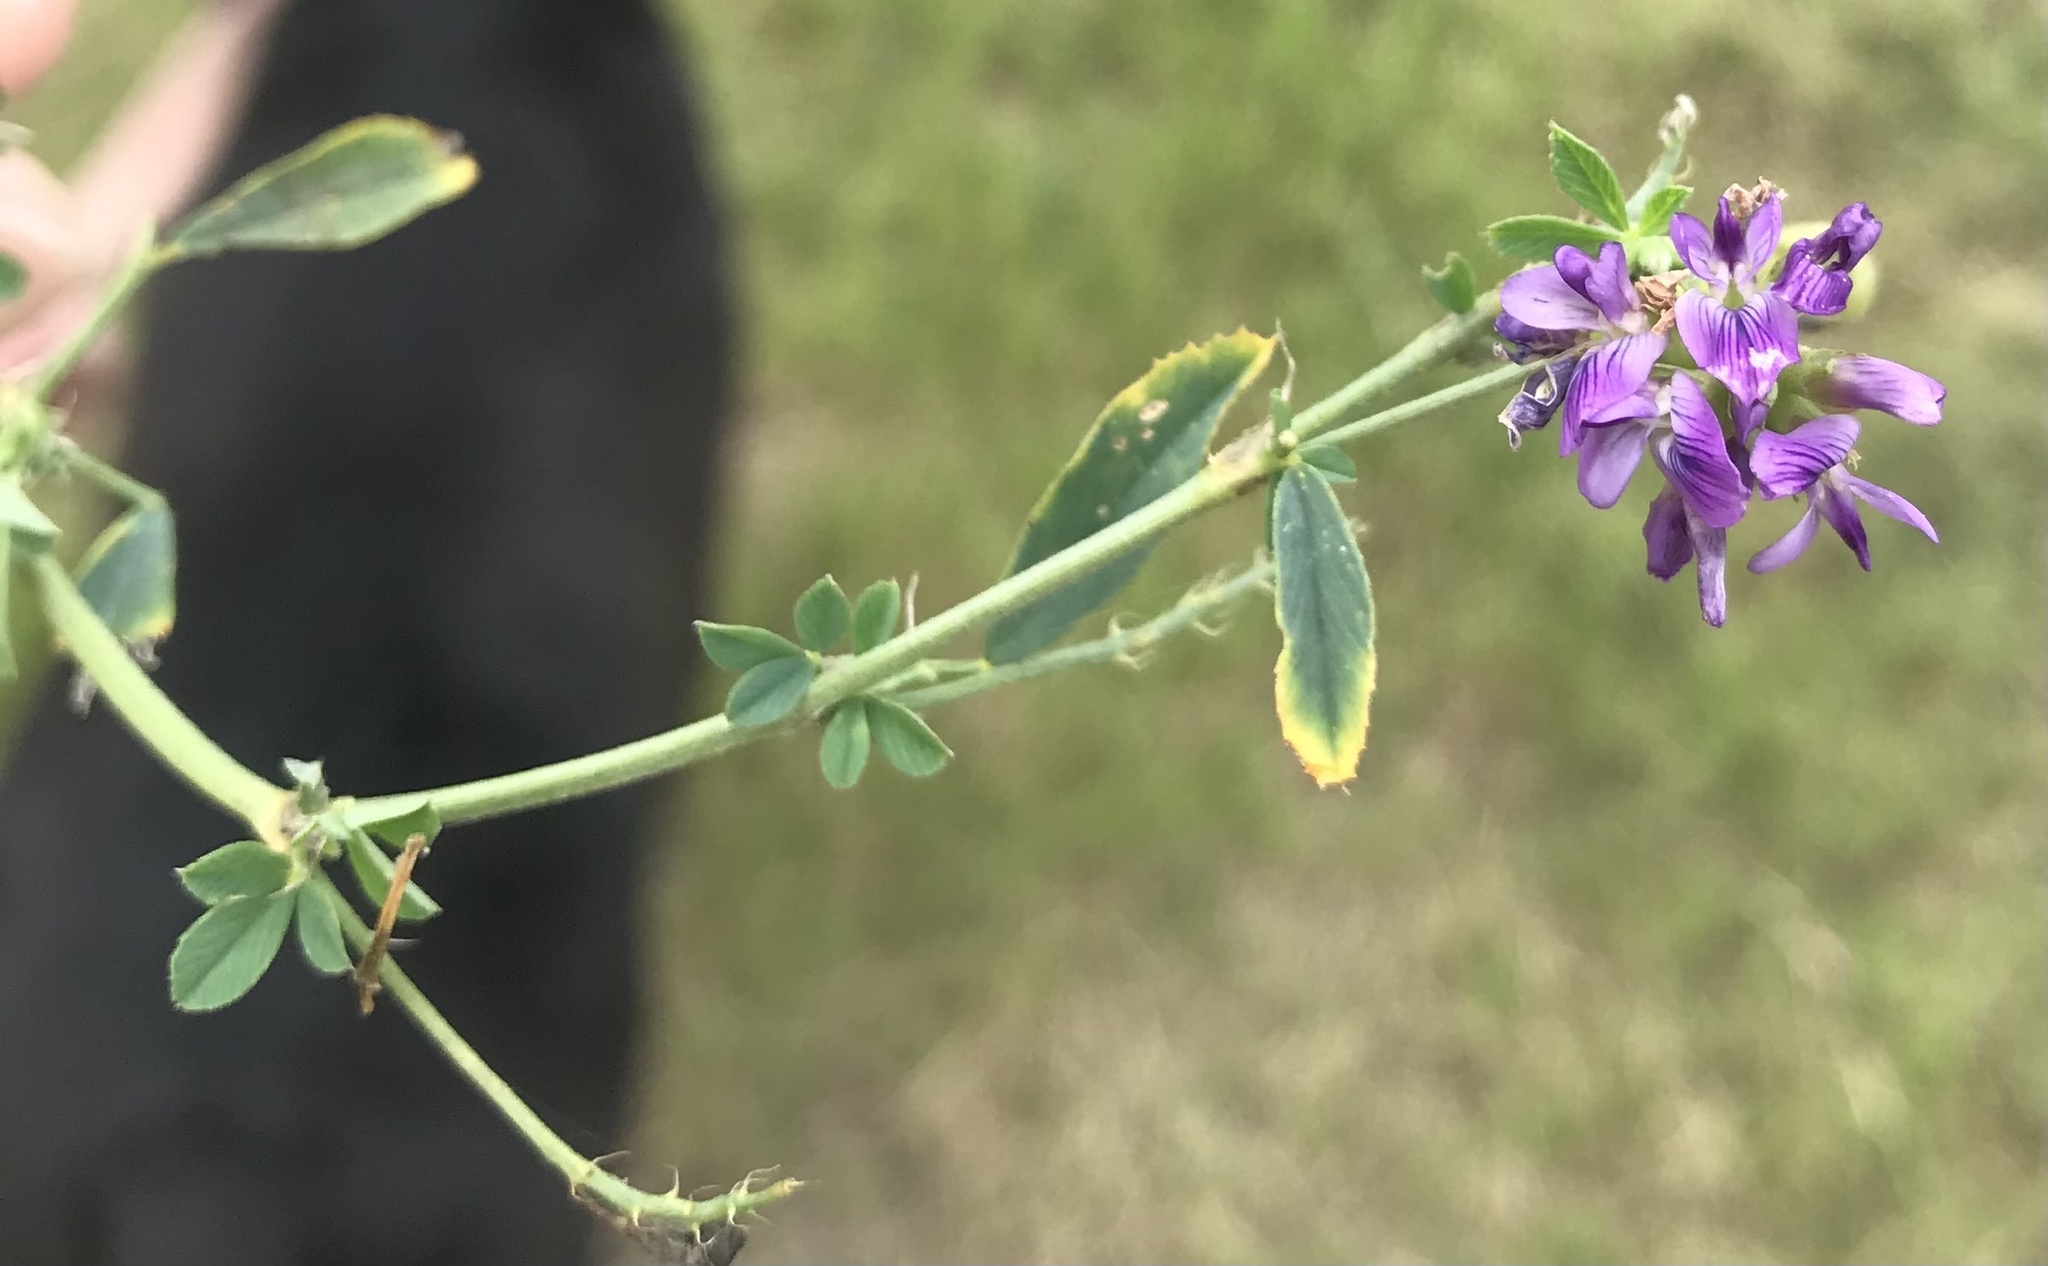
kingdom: Plantae
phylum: Tracheophyta
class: Magnoliopsida
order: Fabales
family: Fabaceae
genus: Medicago
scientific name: Medicago sativa
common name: Alfalfa
